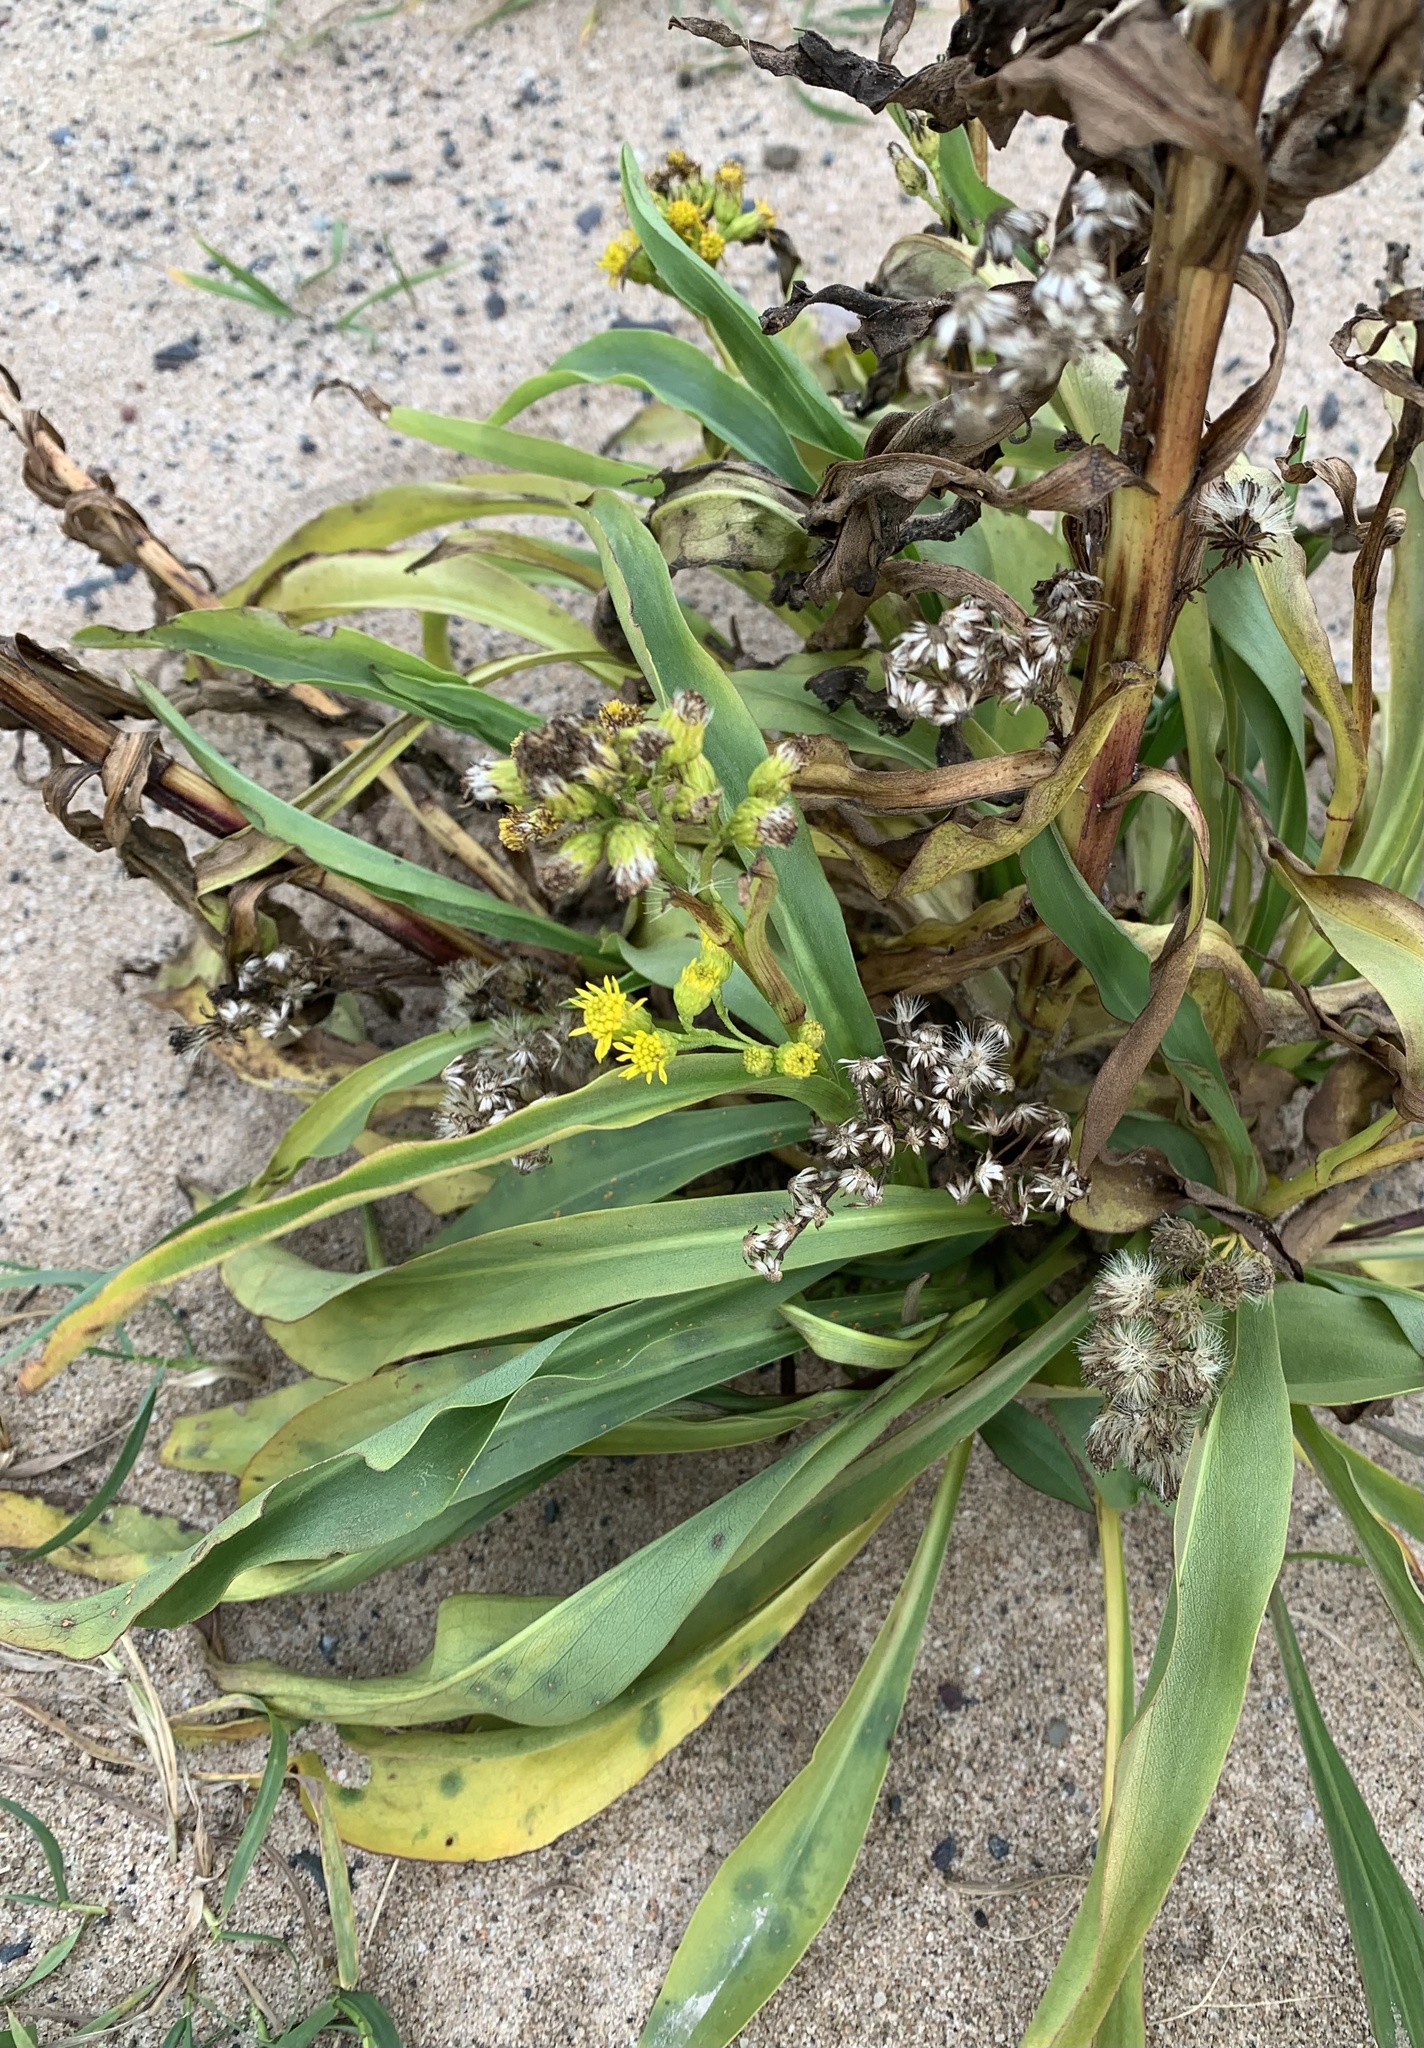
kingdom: Plantae
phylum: Tracheophyta
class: Magnoliopsida
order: Asterales
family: Asteraceae
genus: Solidago
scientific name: Solidago sempervirens
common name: Salt-marsh goldenrod
